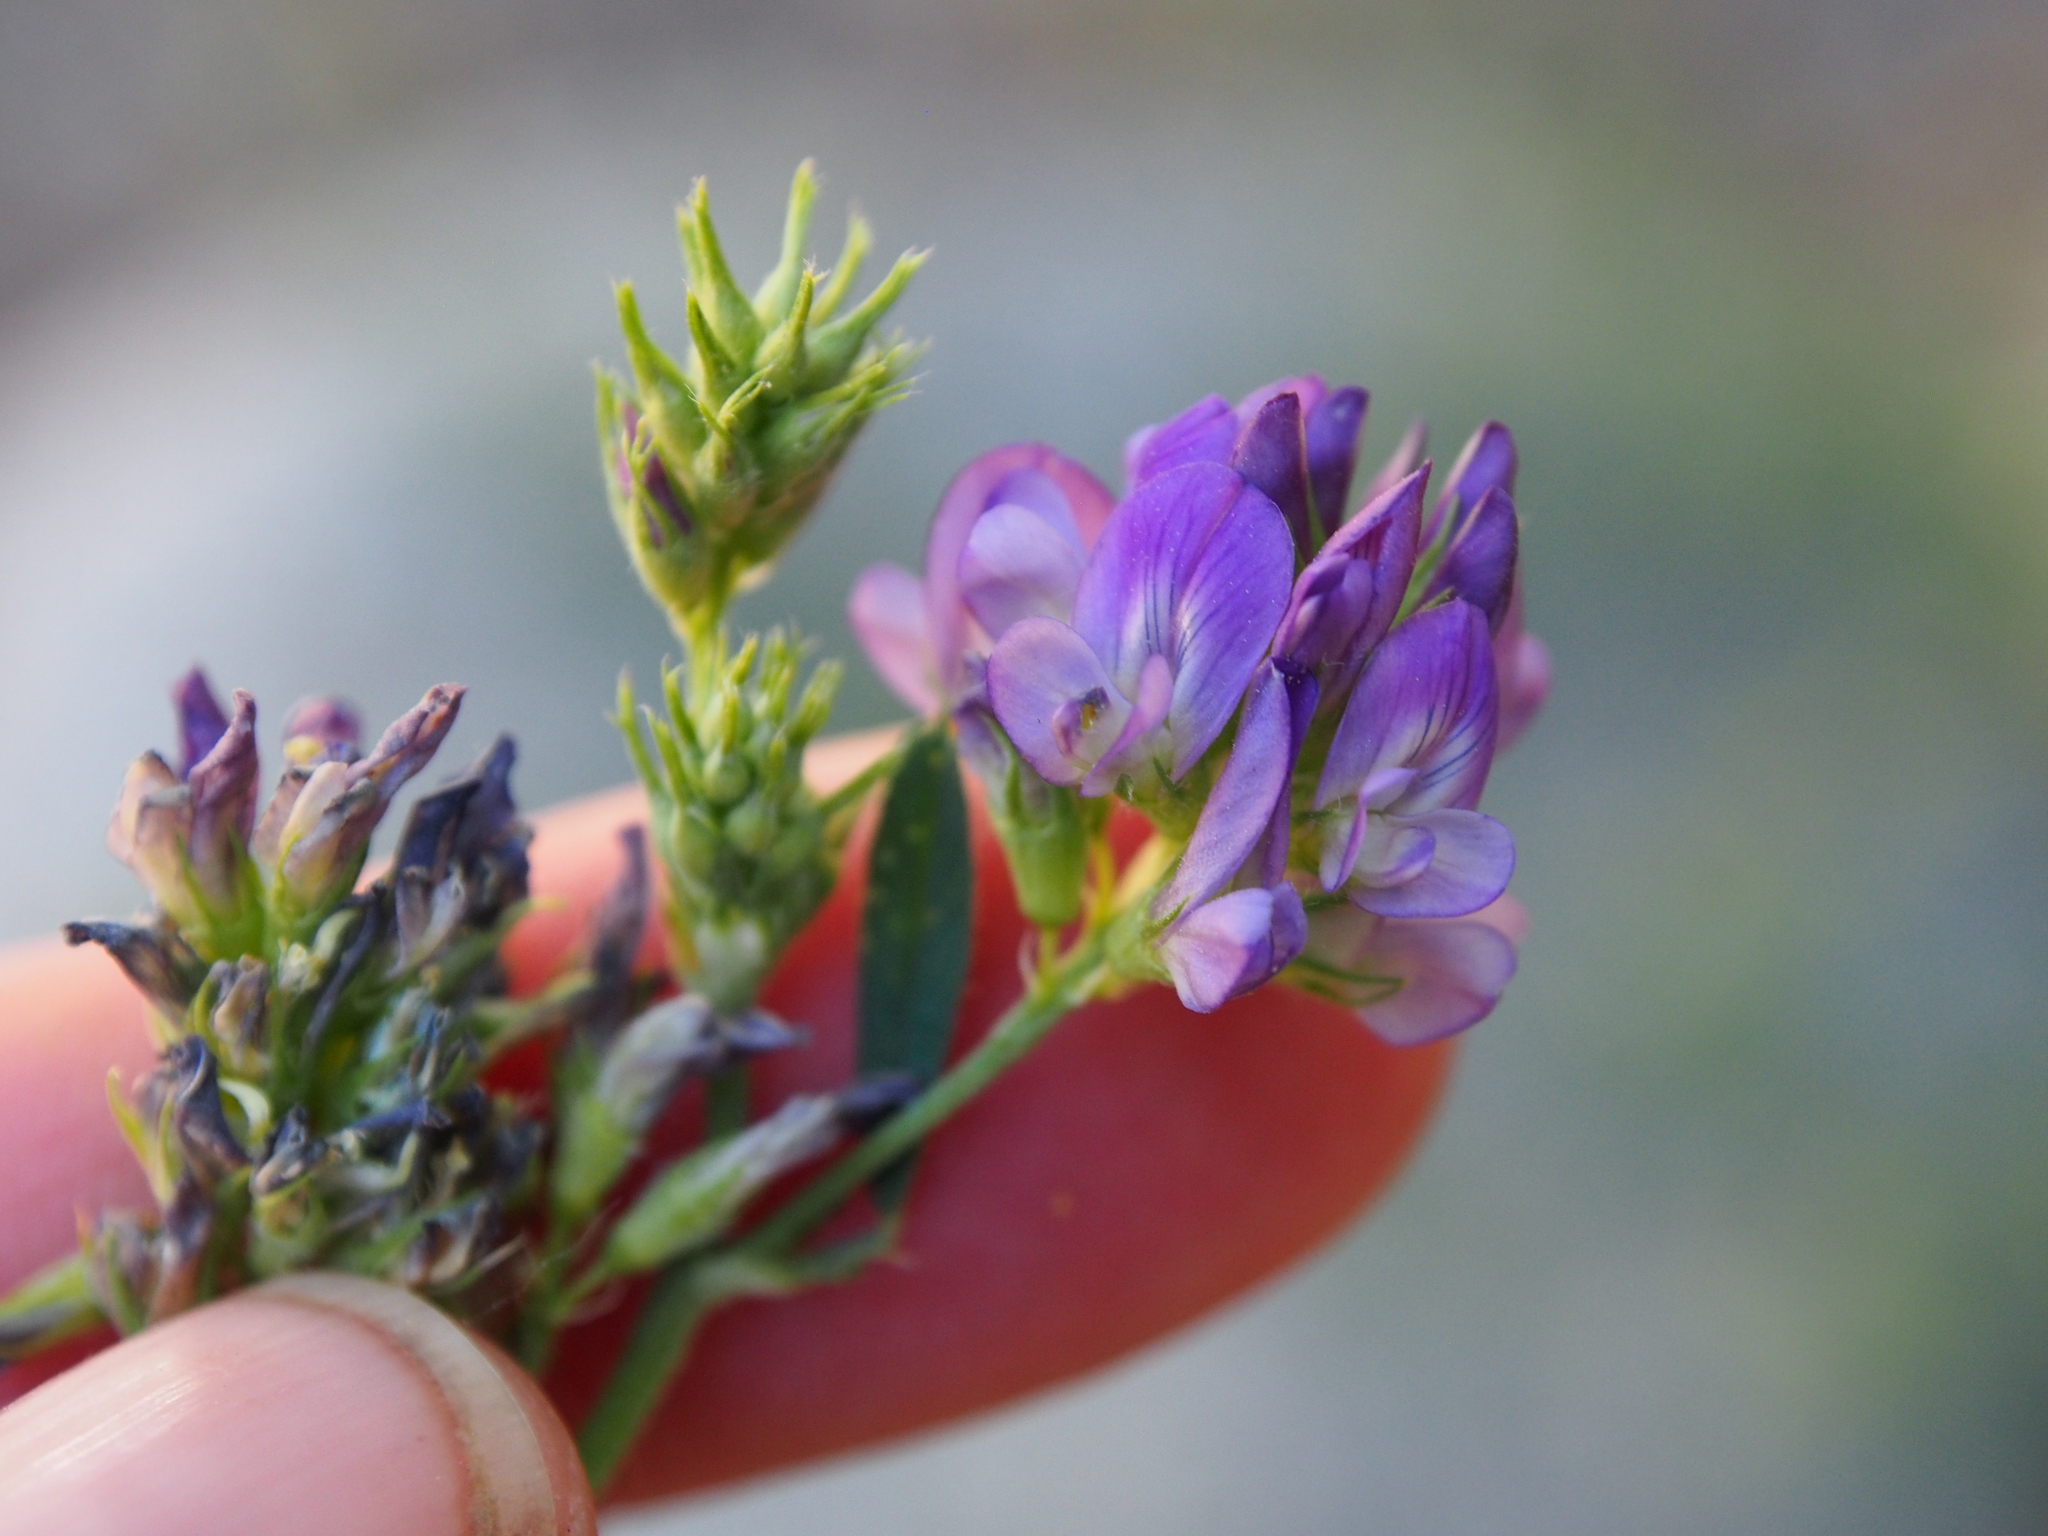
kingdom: Plantae
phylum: Tracheophyta
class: Magnoliopsida
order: Fabales
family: Fabaceae
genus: Medicago
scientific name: Medicago sativa
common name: Alfalfa
